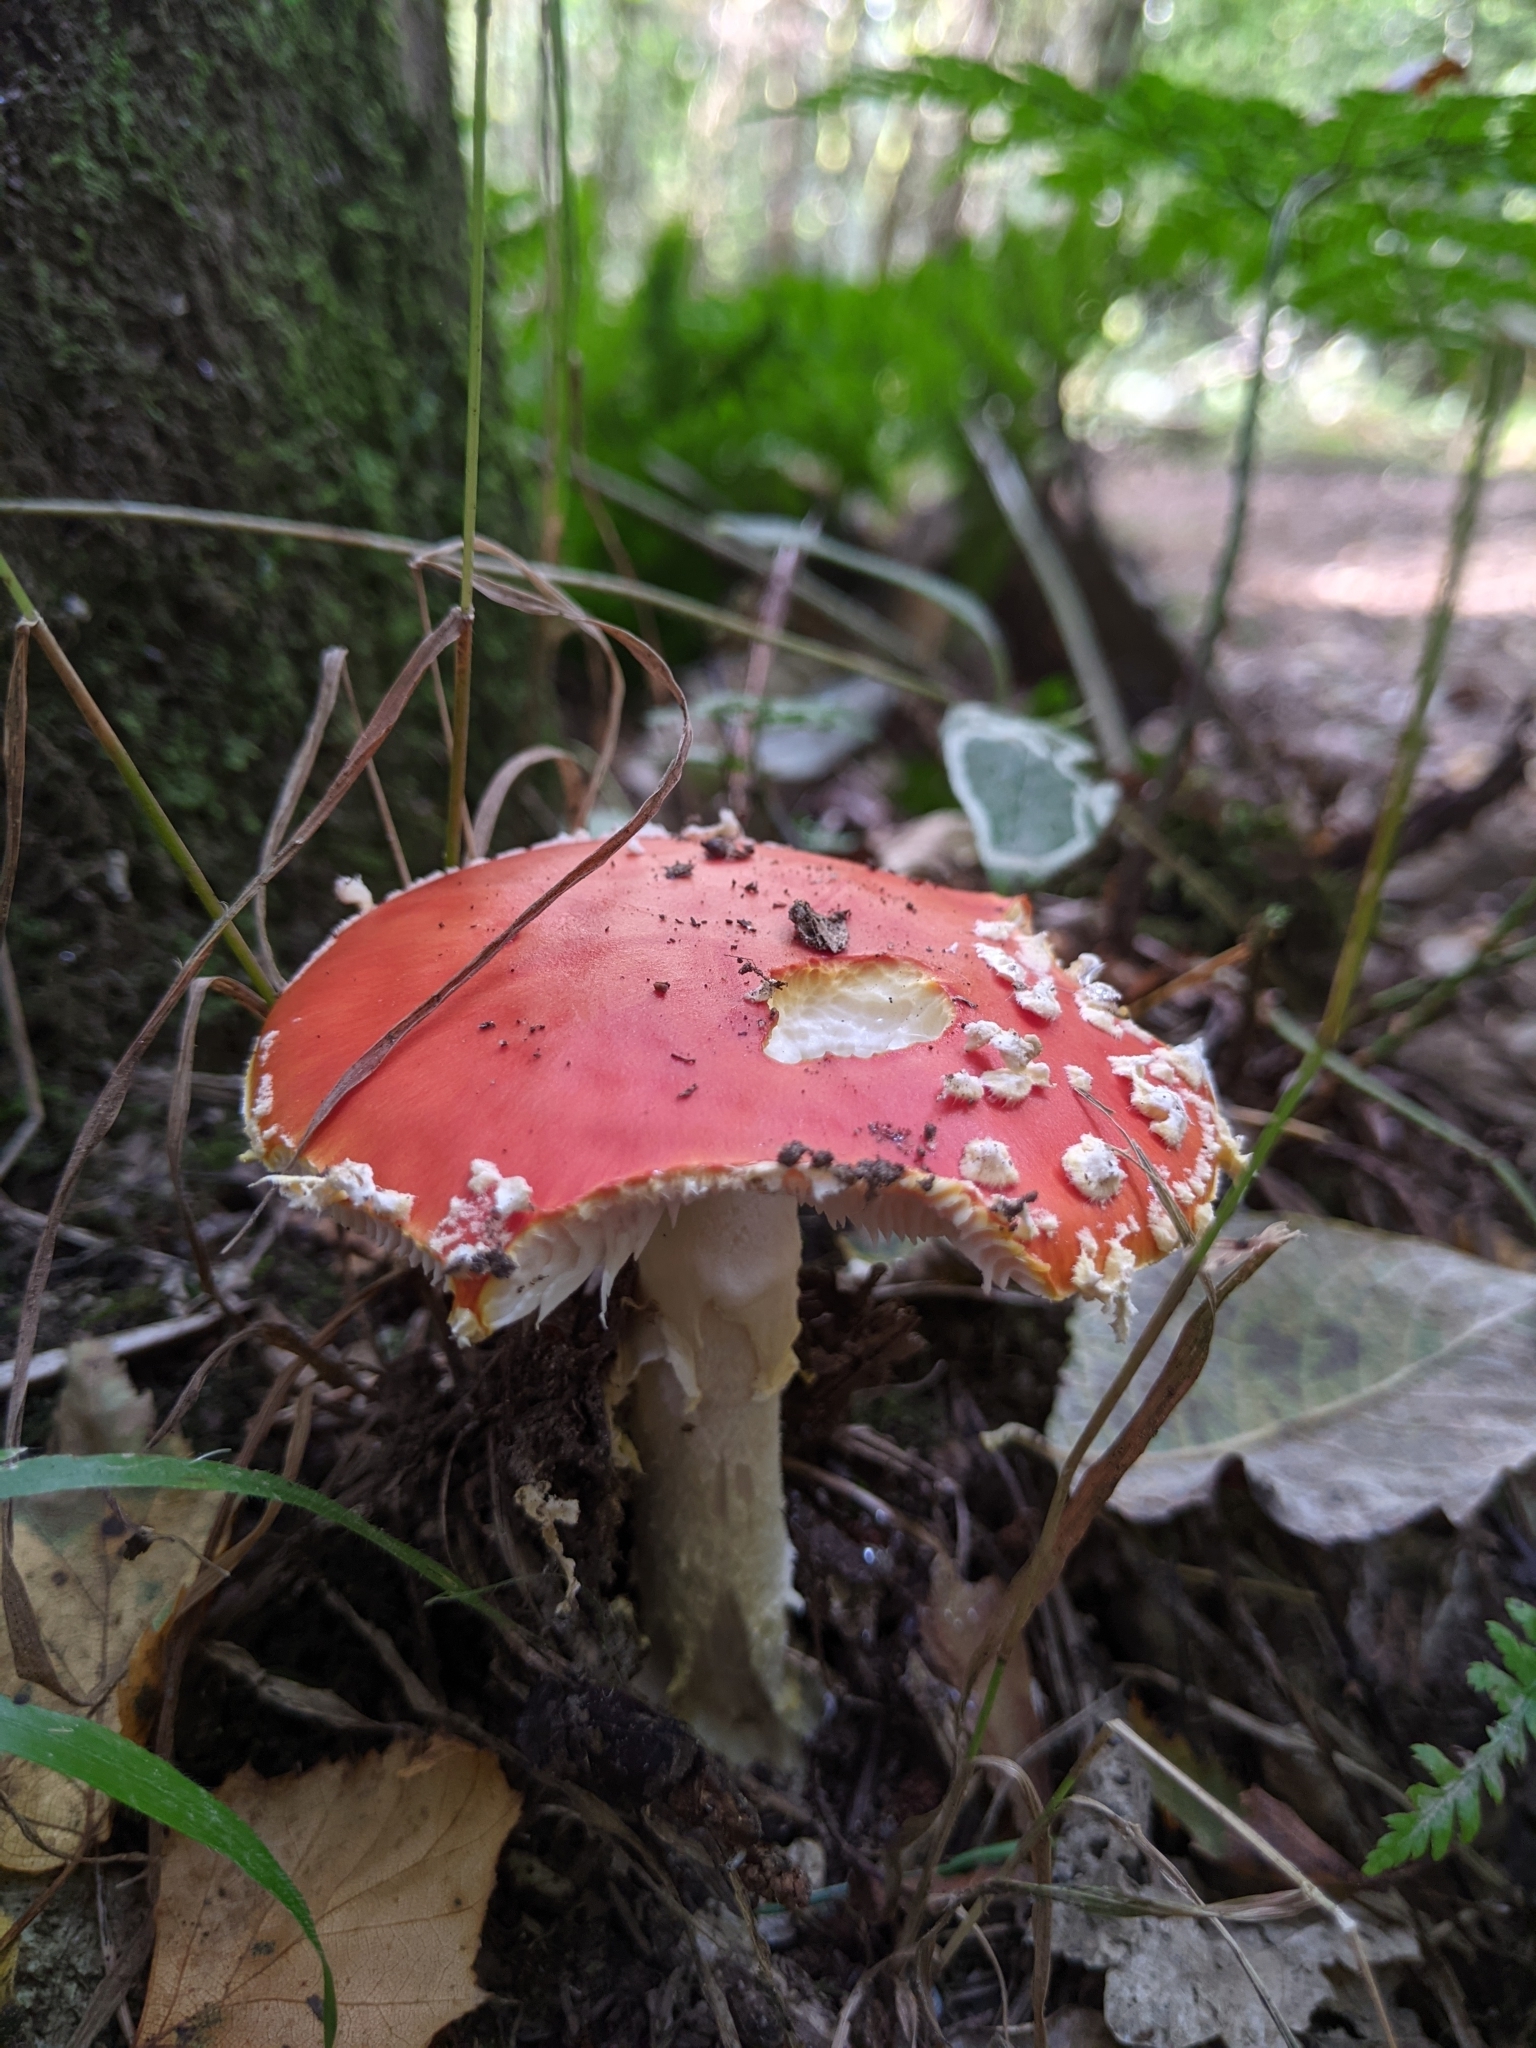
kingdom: Fungi
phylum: Basidiomycota
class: Agaricomycetes
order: Agaricales
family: Amanitaceae
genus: Amanita
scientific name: Amanita muscaria
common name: Fly agaric
